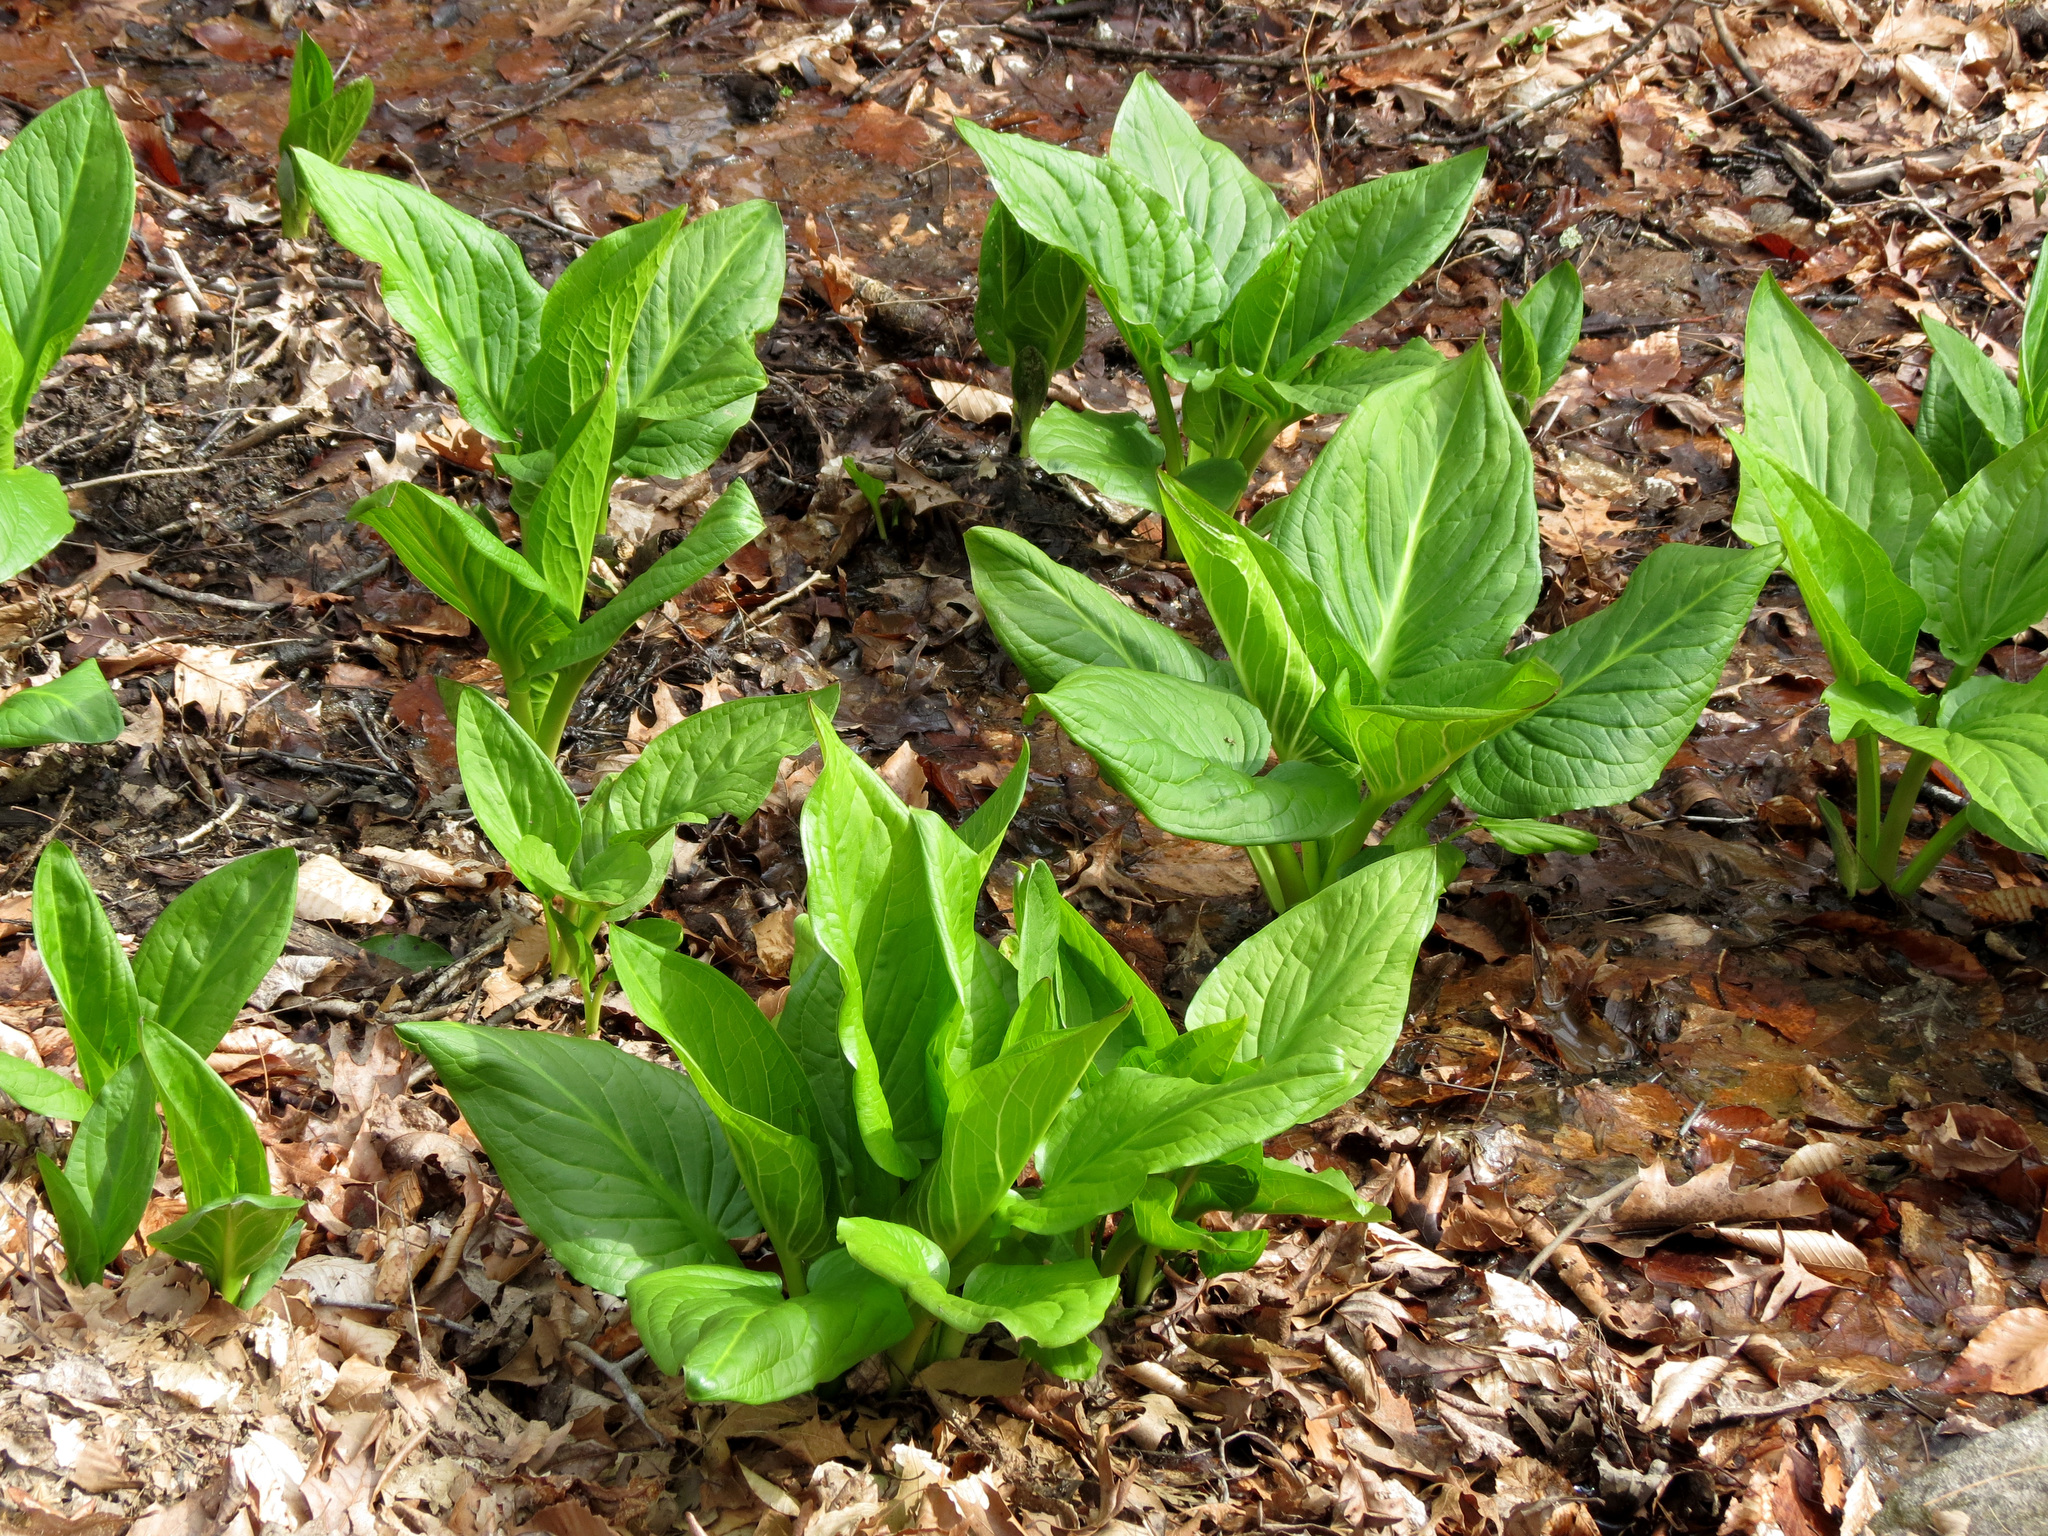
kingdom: Plantae
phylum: Tracheophyta
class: Liliopsida
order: Alismatales
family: Araceae
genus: Symplocarpus
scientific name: Symplocarpus foetidus
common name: Eastern skunk cabbage
